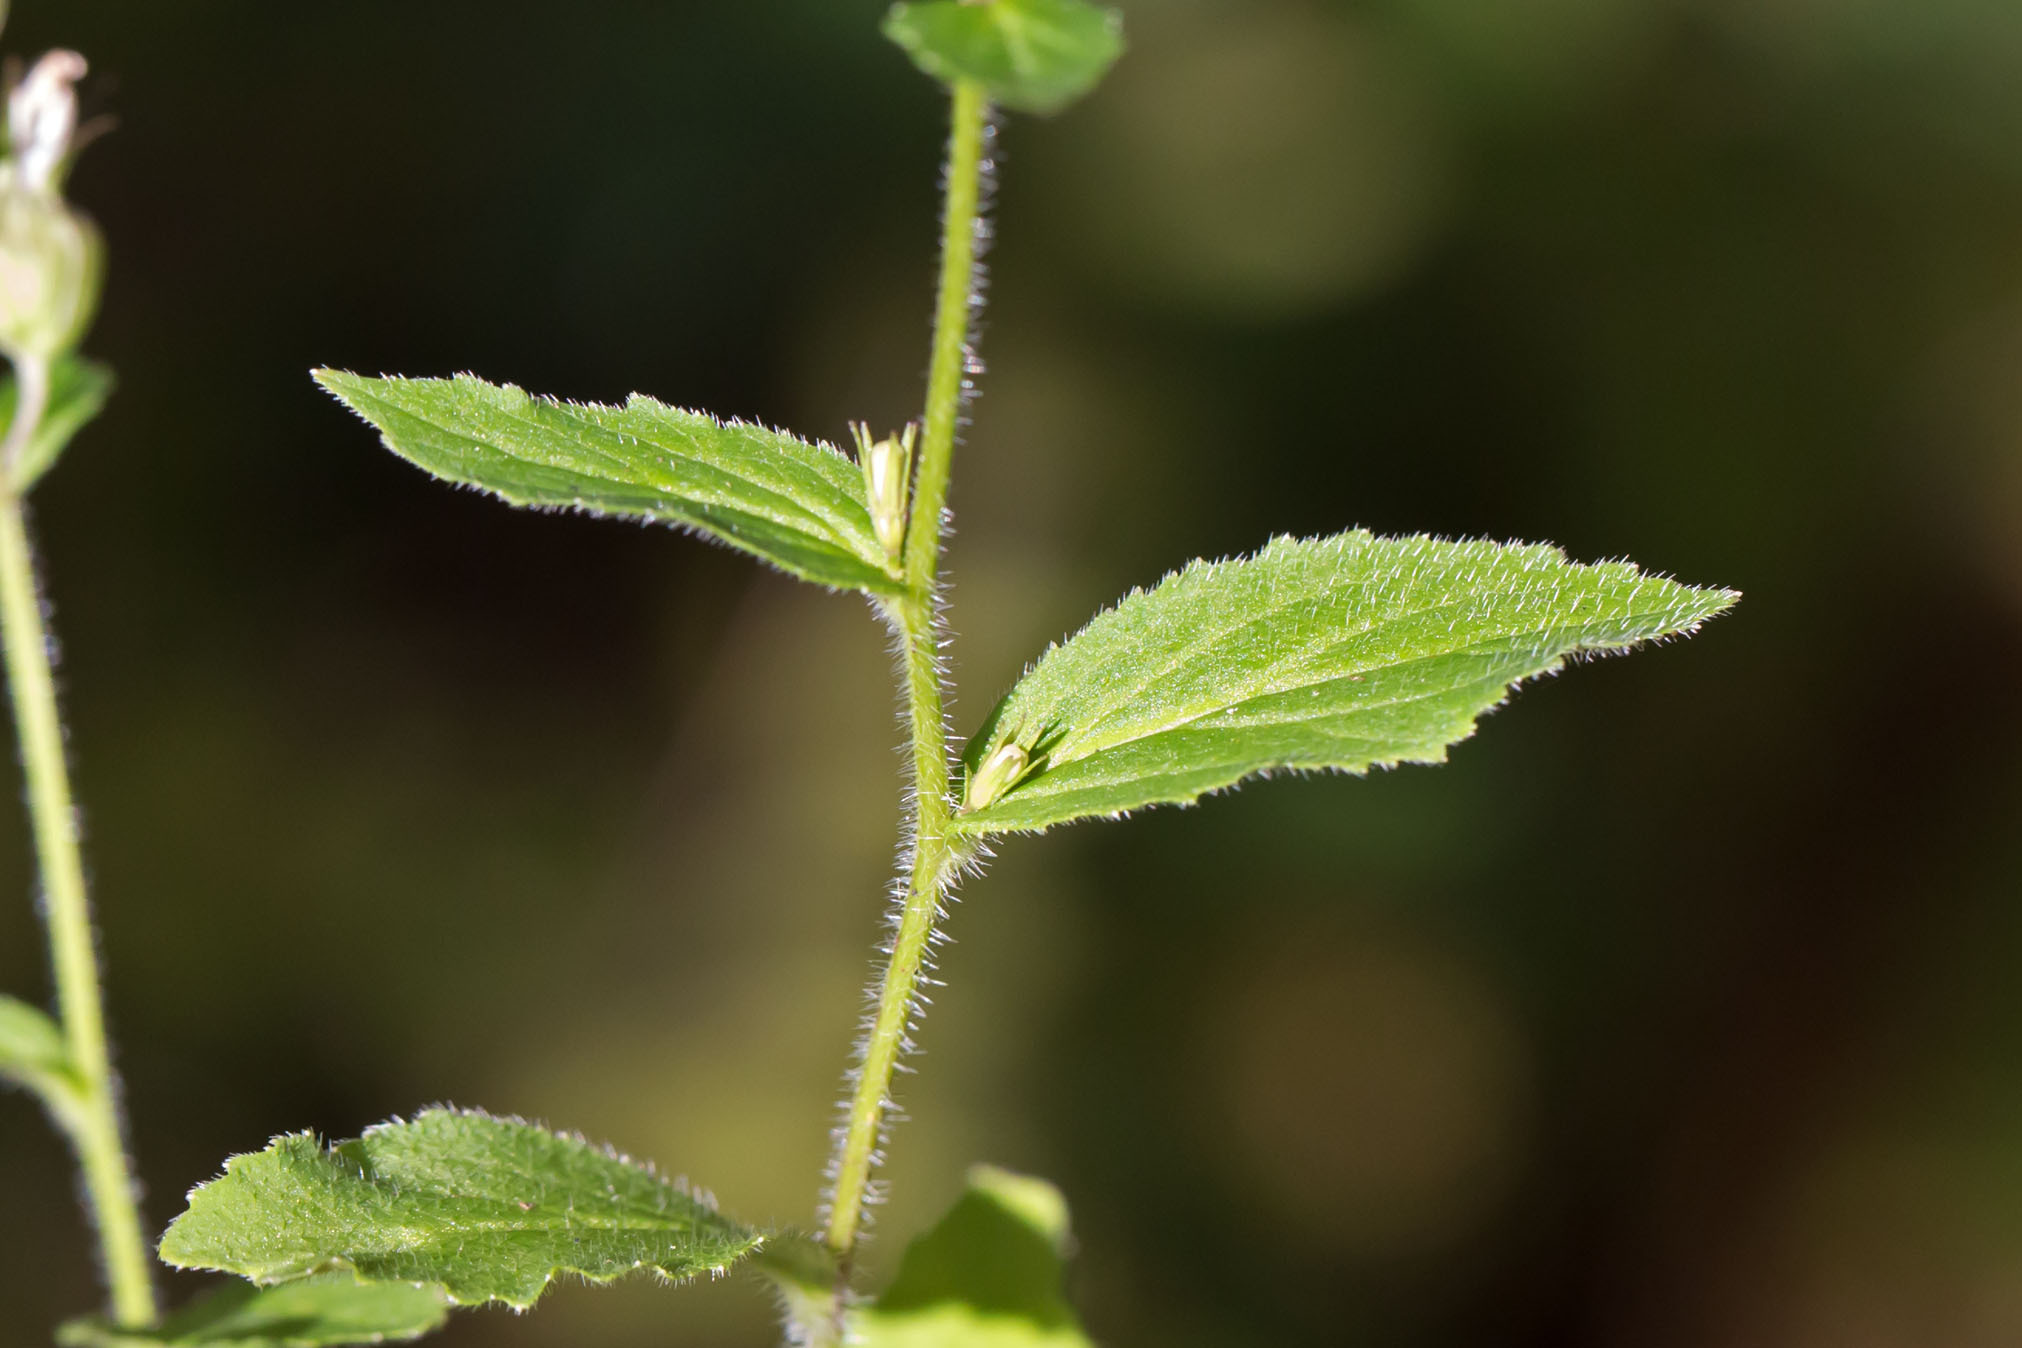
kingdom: Plantae
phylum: Tracheophyta
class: Magnoliopsida
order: Asterales
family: Campanulaceae
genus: Lobelia
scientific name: Lobelia inflata
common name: Indian tobacco
